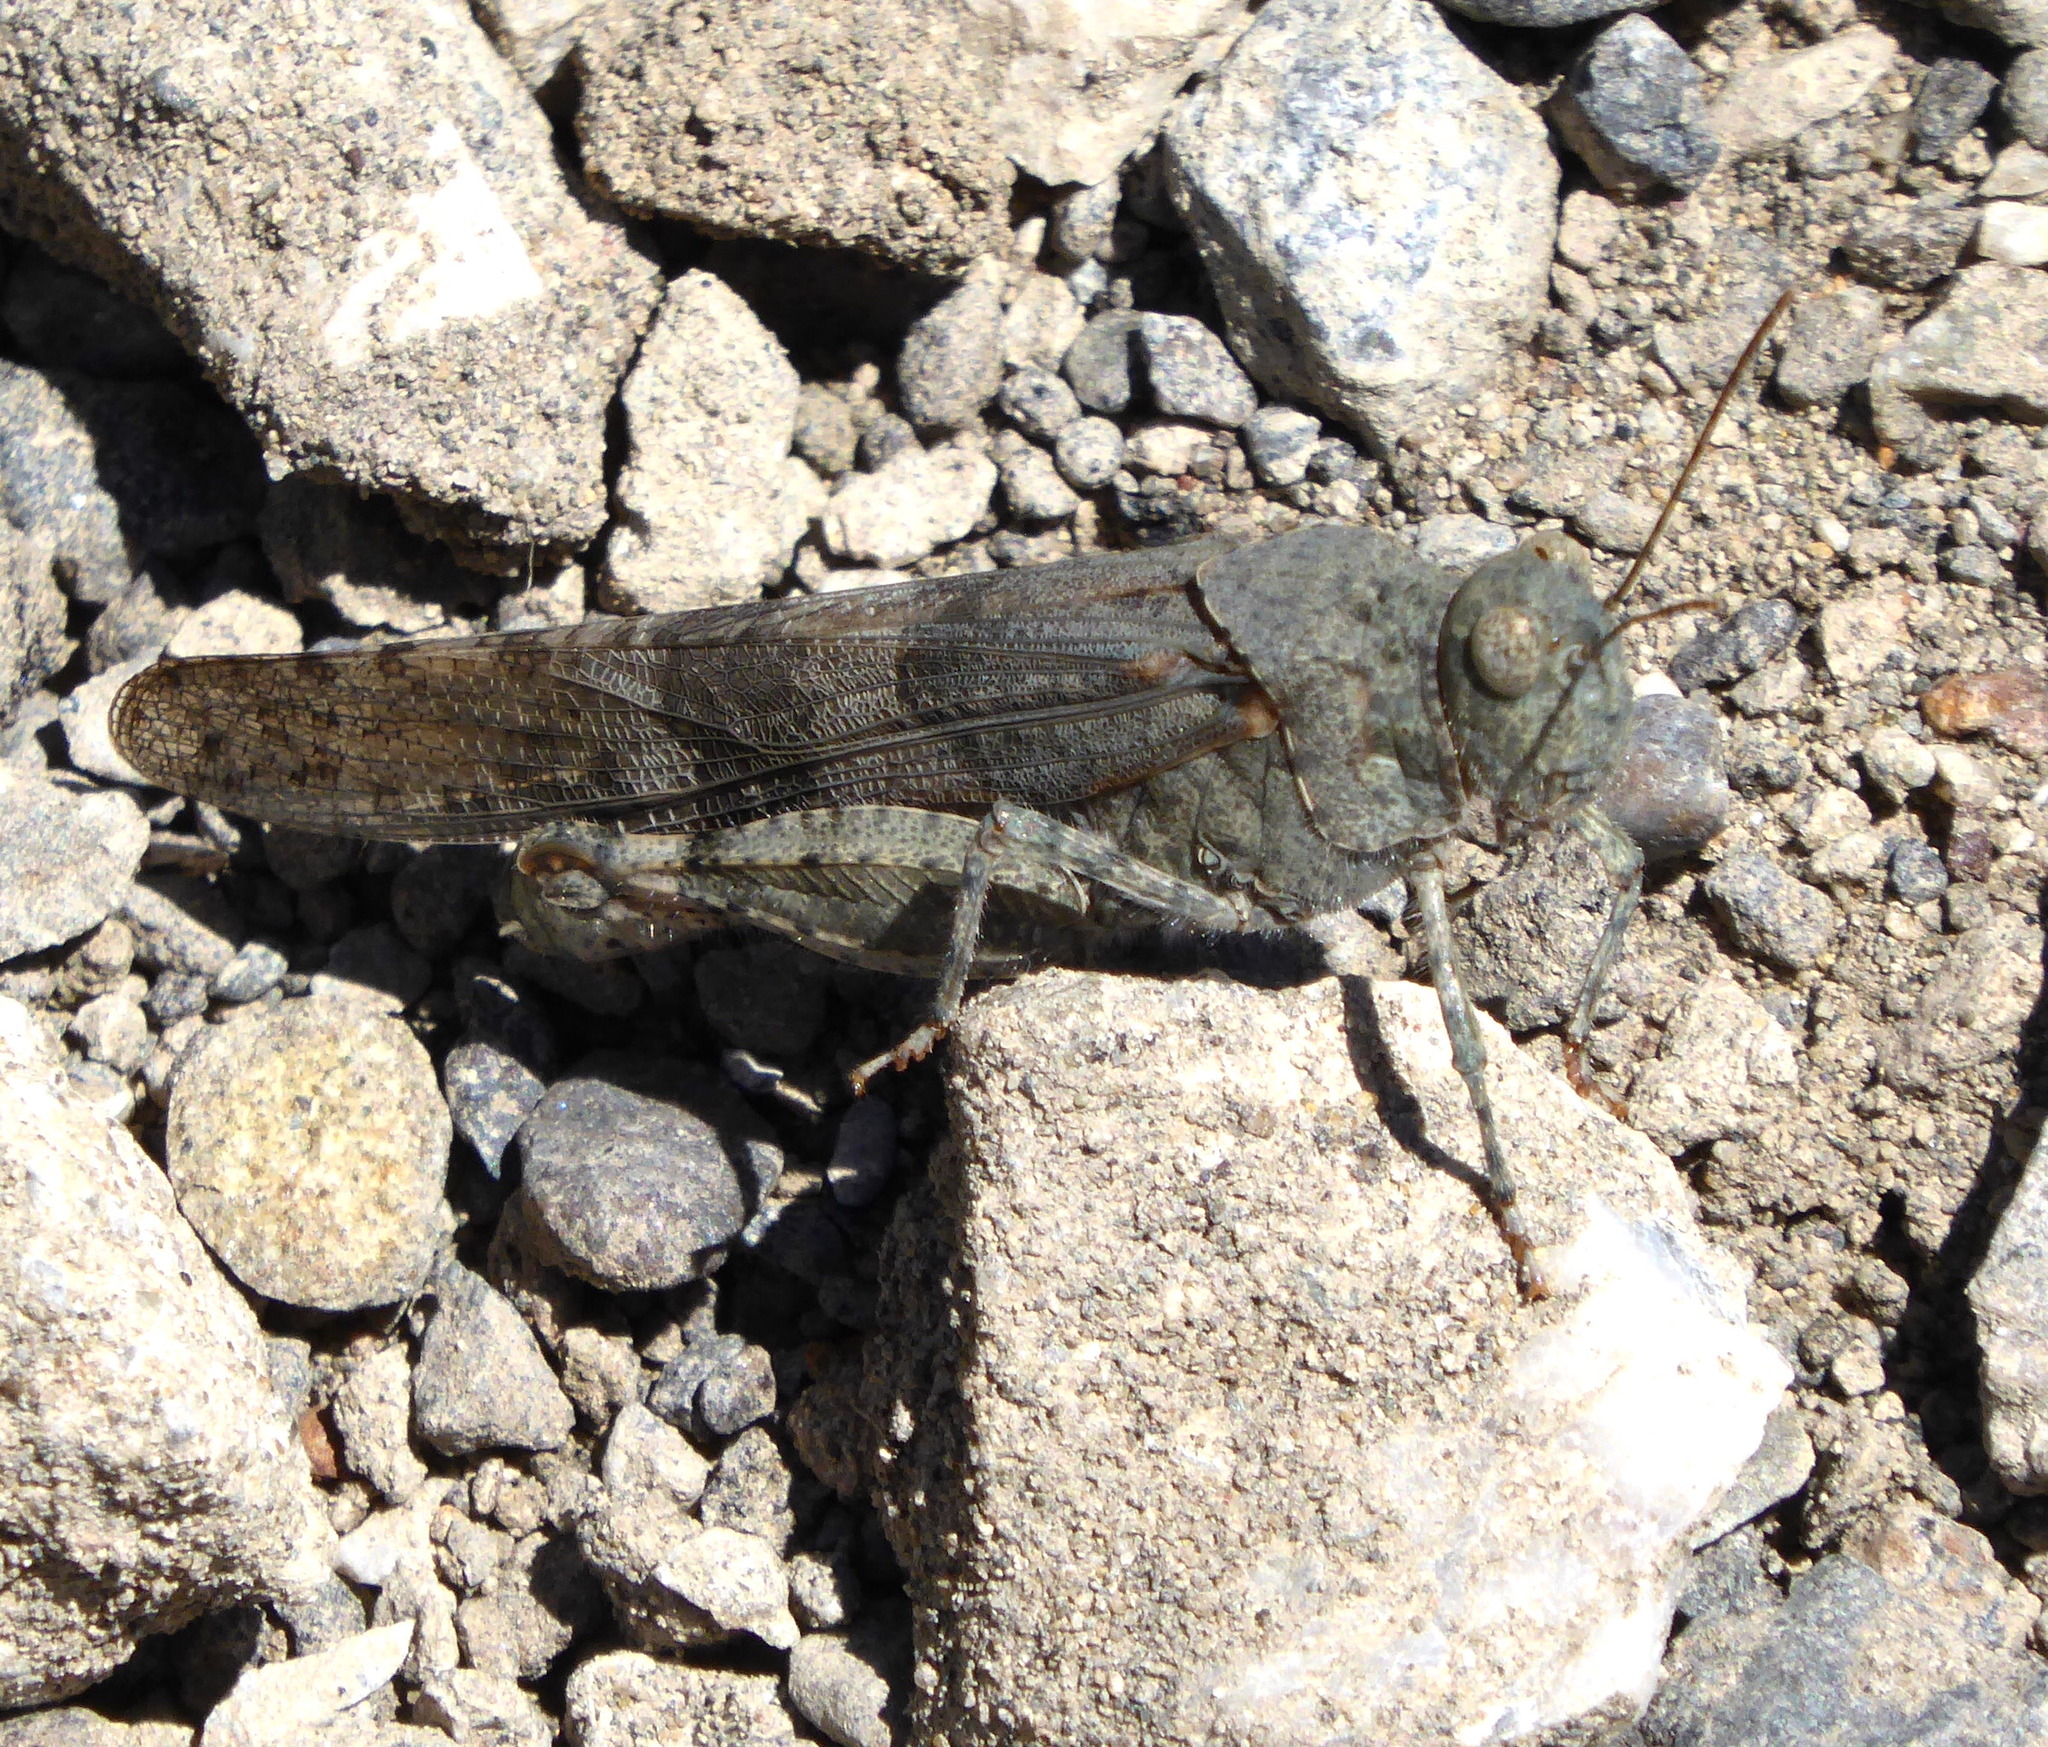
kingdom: Animalia
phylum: Arthropoda
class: Insecta
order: Orthoptera
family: Acrididae
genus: Trimerotropis
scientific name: Trimerotropis pallidipennis
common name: Pallid-winged grasshopper
